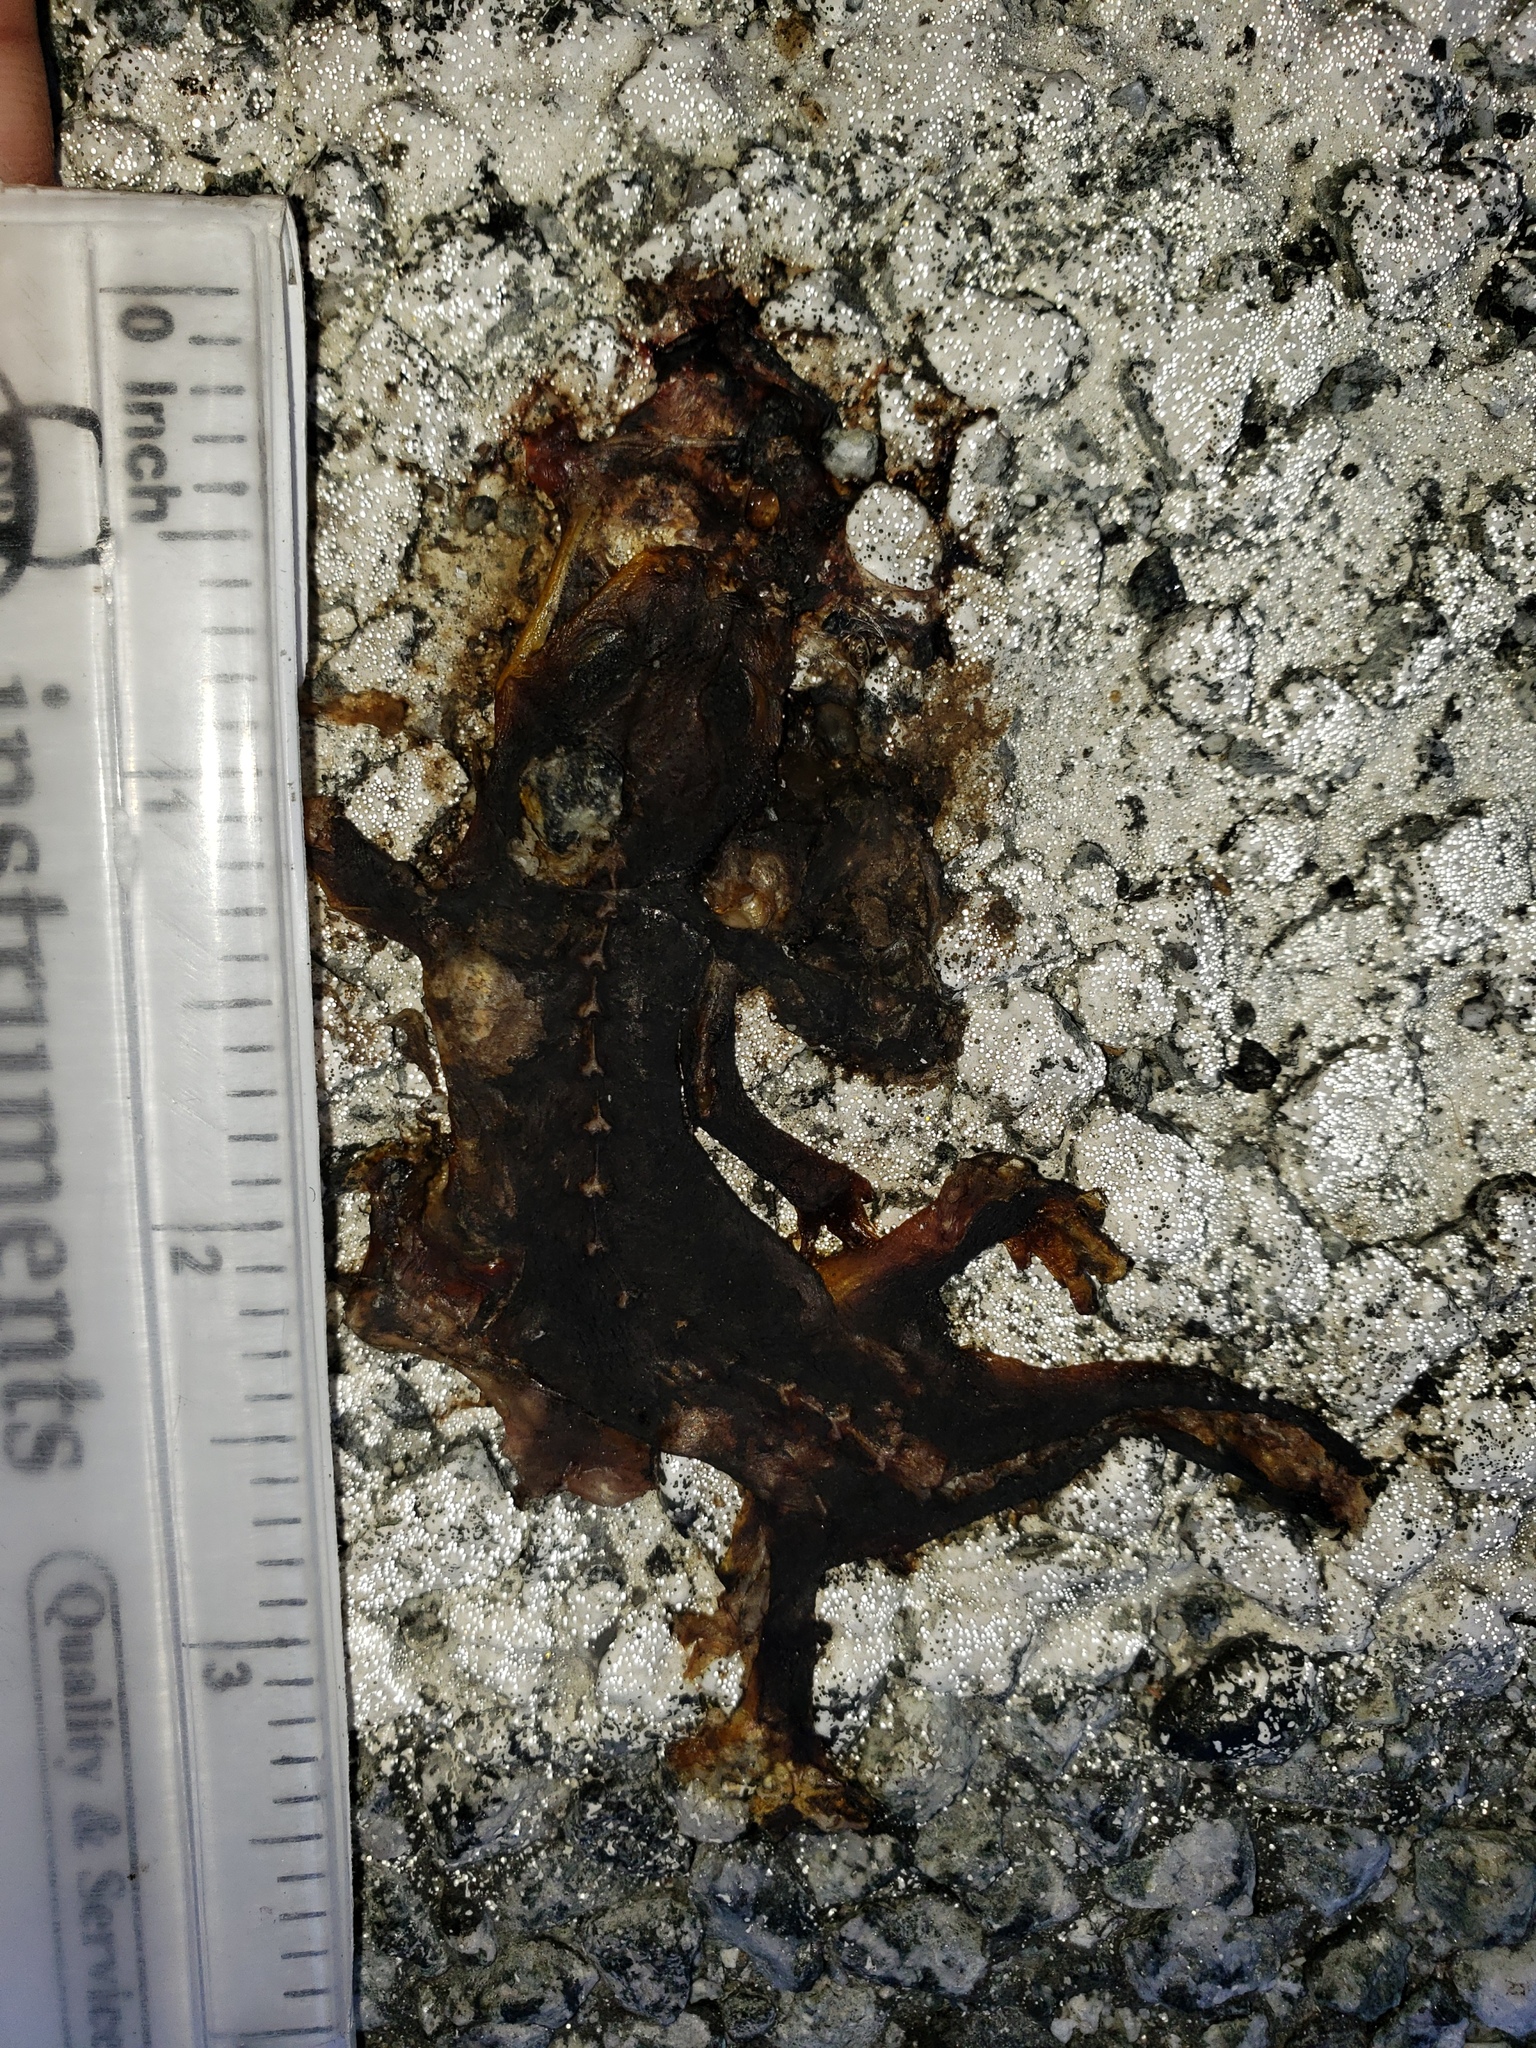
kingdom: Animalia
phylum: Chordata
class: Amphibia
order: Caudata
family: Salamandridae
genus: Taricha
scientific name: Taricha
